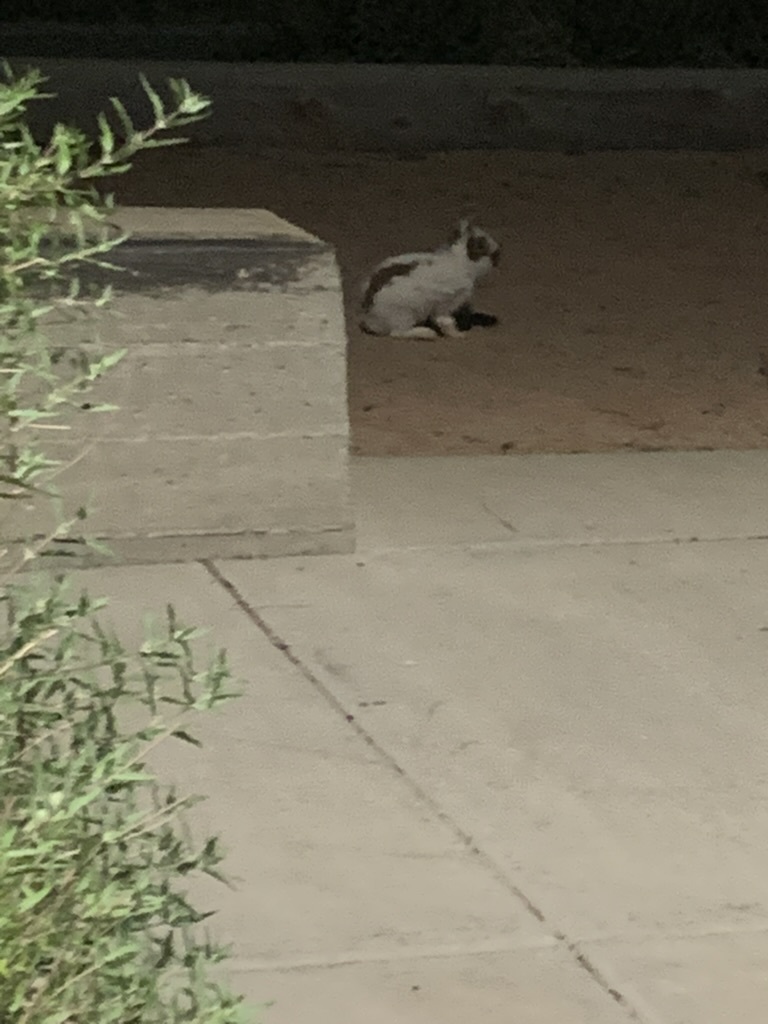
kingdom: Animalia
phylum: Chordata
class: Mammalia
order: Lagomorpha
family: Leporidae
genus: Oryctolagus
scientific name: Oryctolagus cuniculus
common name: European rabbit
